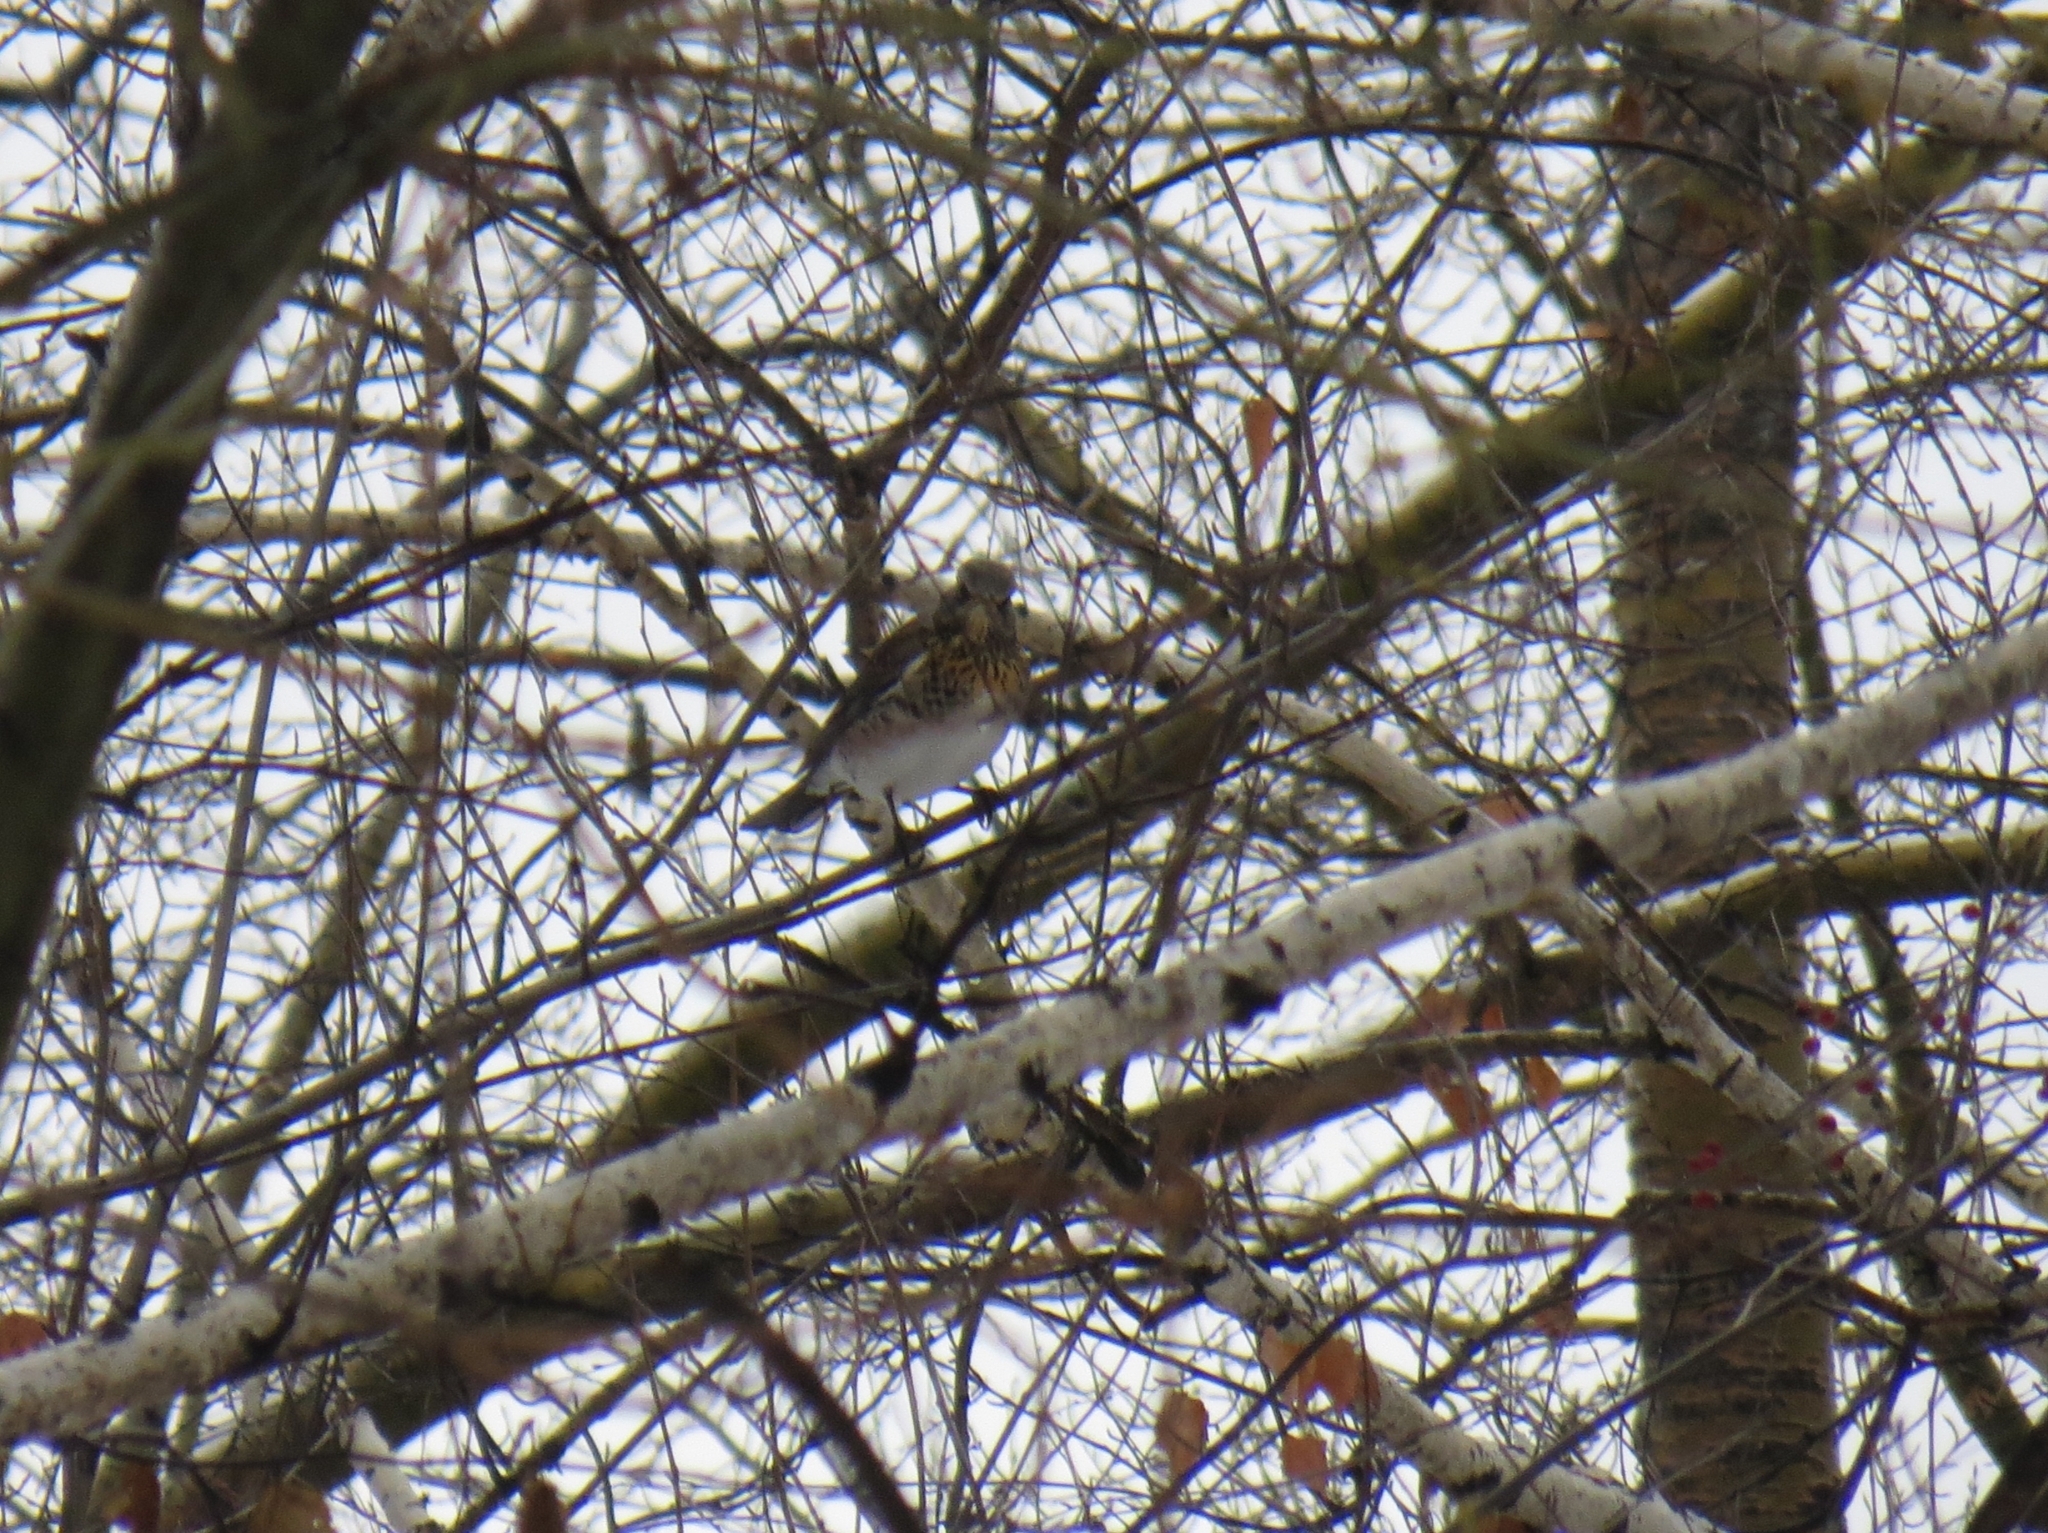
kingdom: Animalia
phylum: Chordata
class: Aves
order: Passeriformes
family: Turdidae
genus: Turdus
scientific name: Turdus pilaris
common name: Fieldfare
